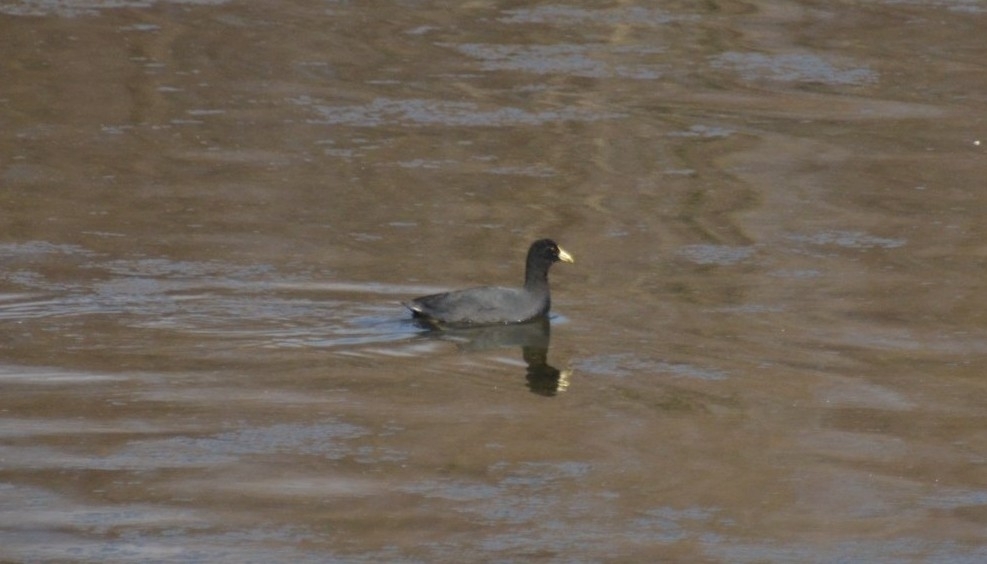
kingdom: Animalia
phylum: Chordata
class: Aves
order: Gruiformes
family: Rallidae
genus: Fulica
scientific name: Fulica leucoptera
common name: White-winged coot
